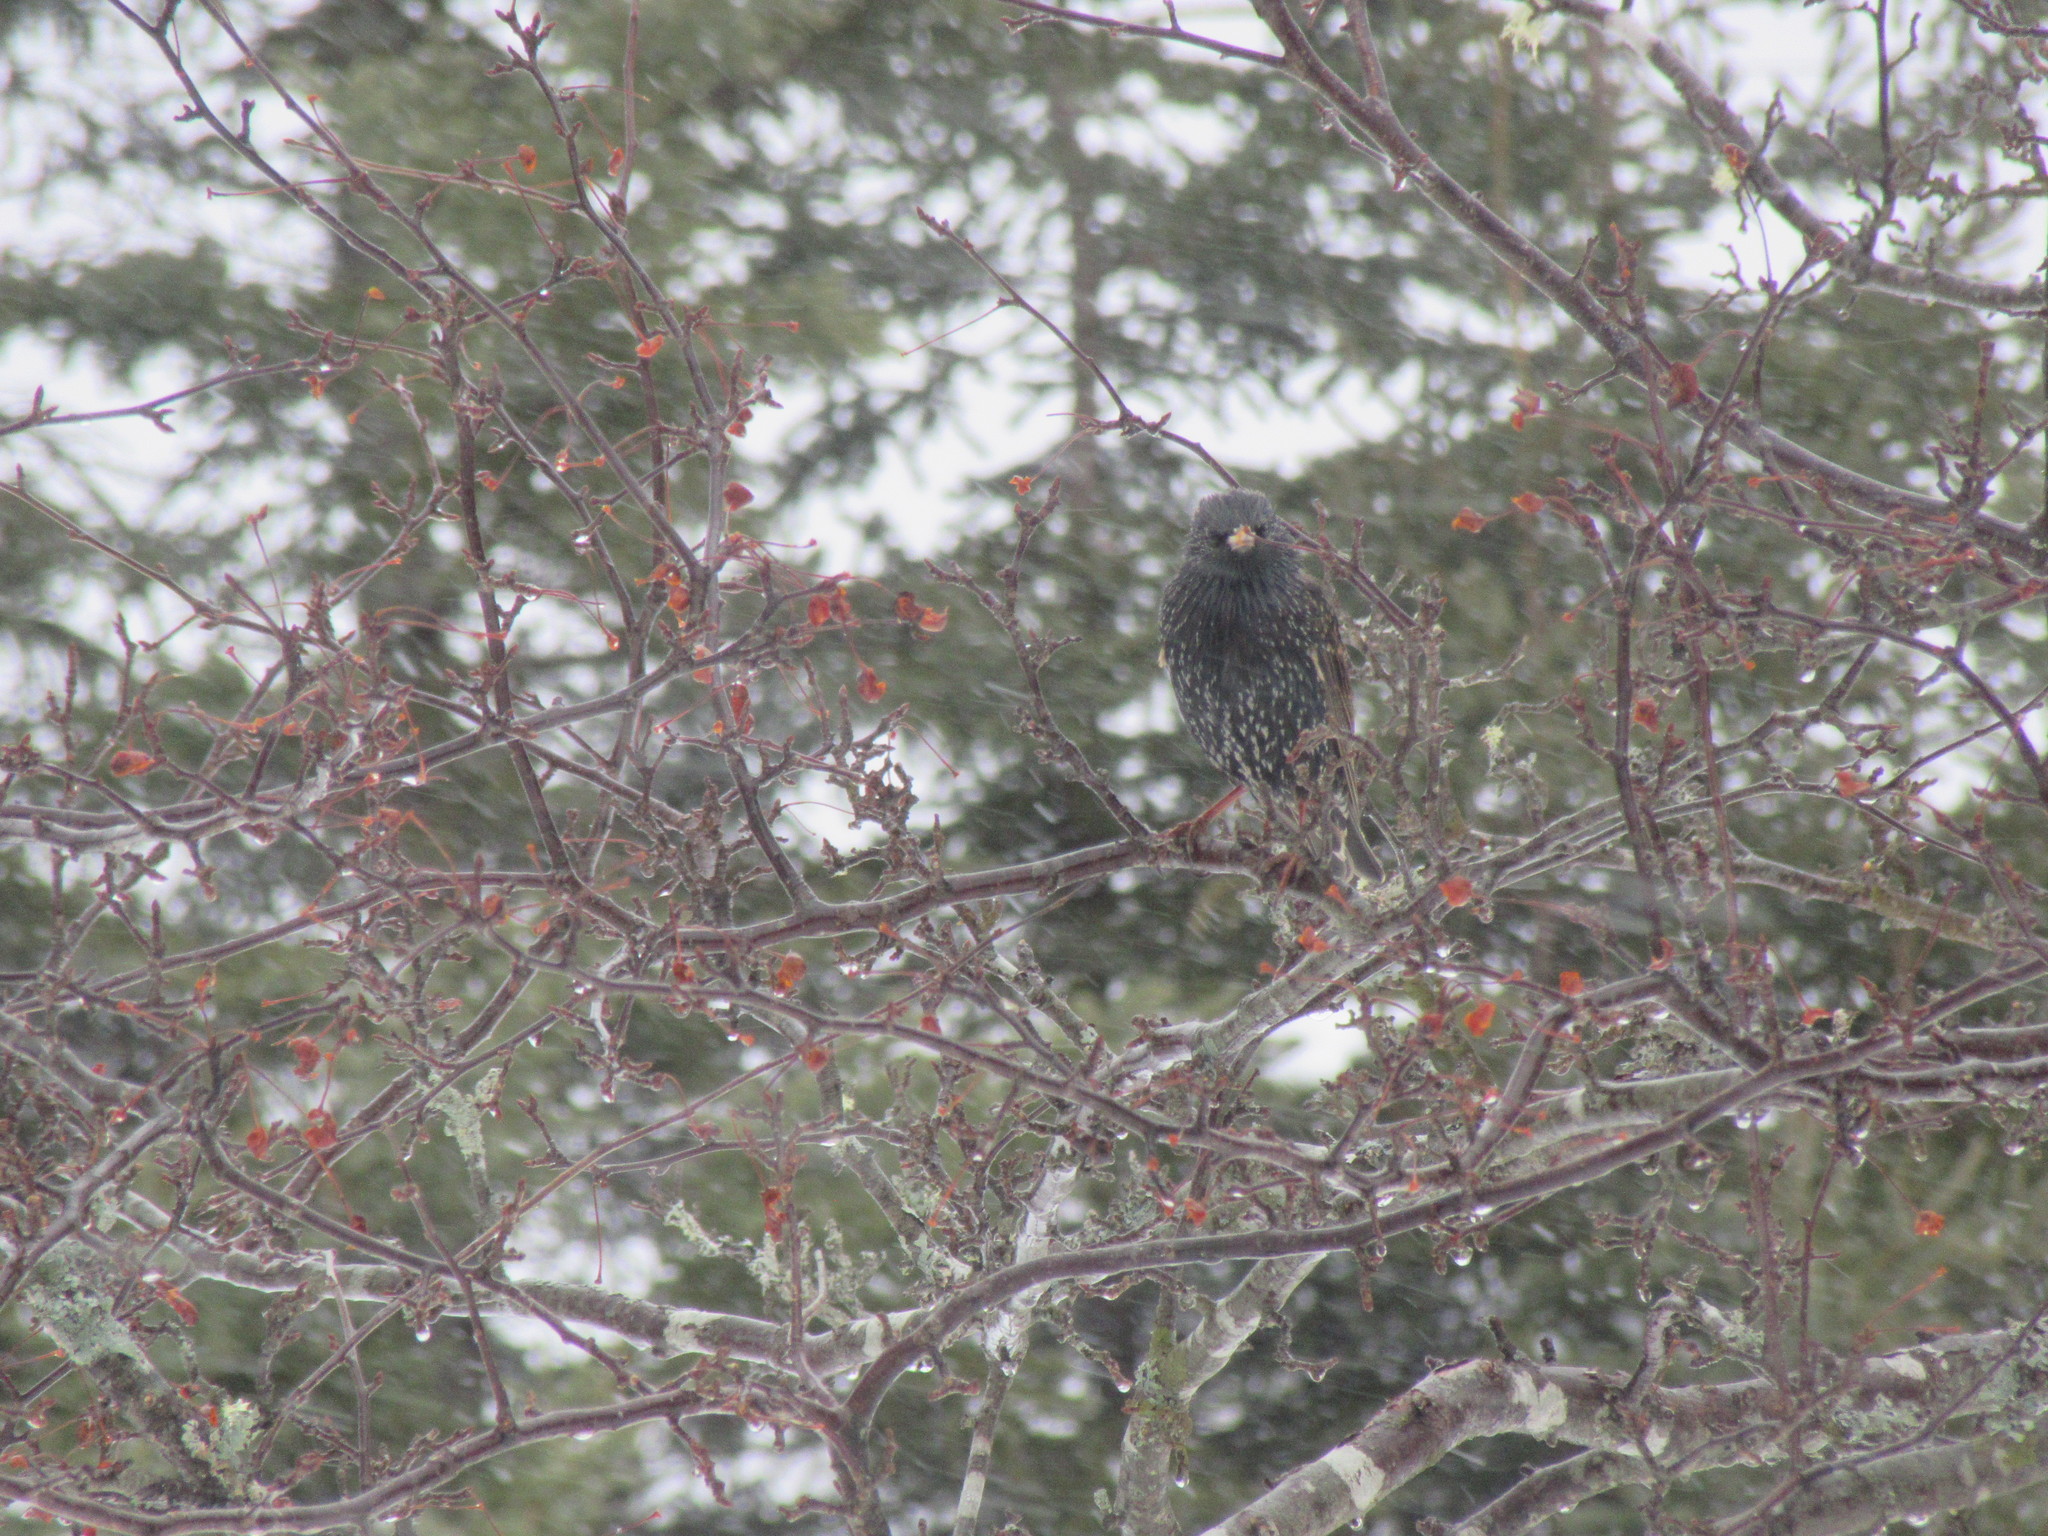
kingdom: Animalia
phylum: Chordata
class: Aves
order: Passeriformes
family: Sturnidae
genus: Sturnus
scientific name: Sturnus vulgaris
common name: Common starling
